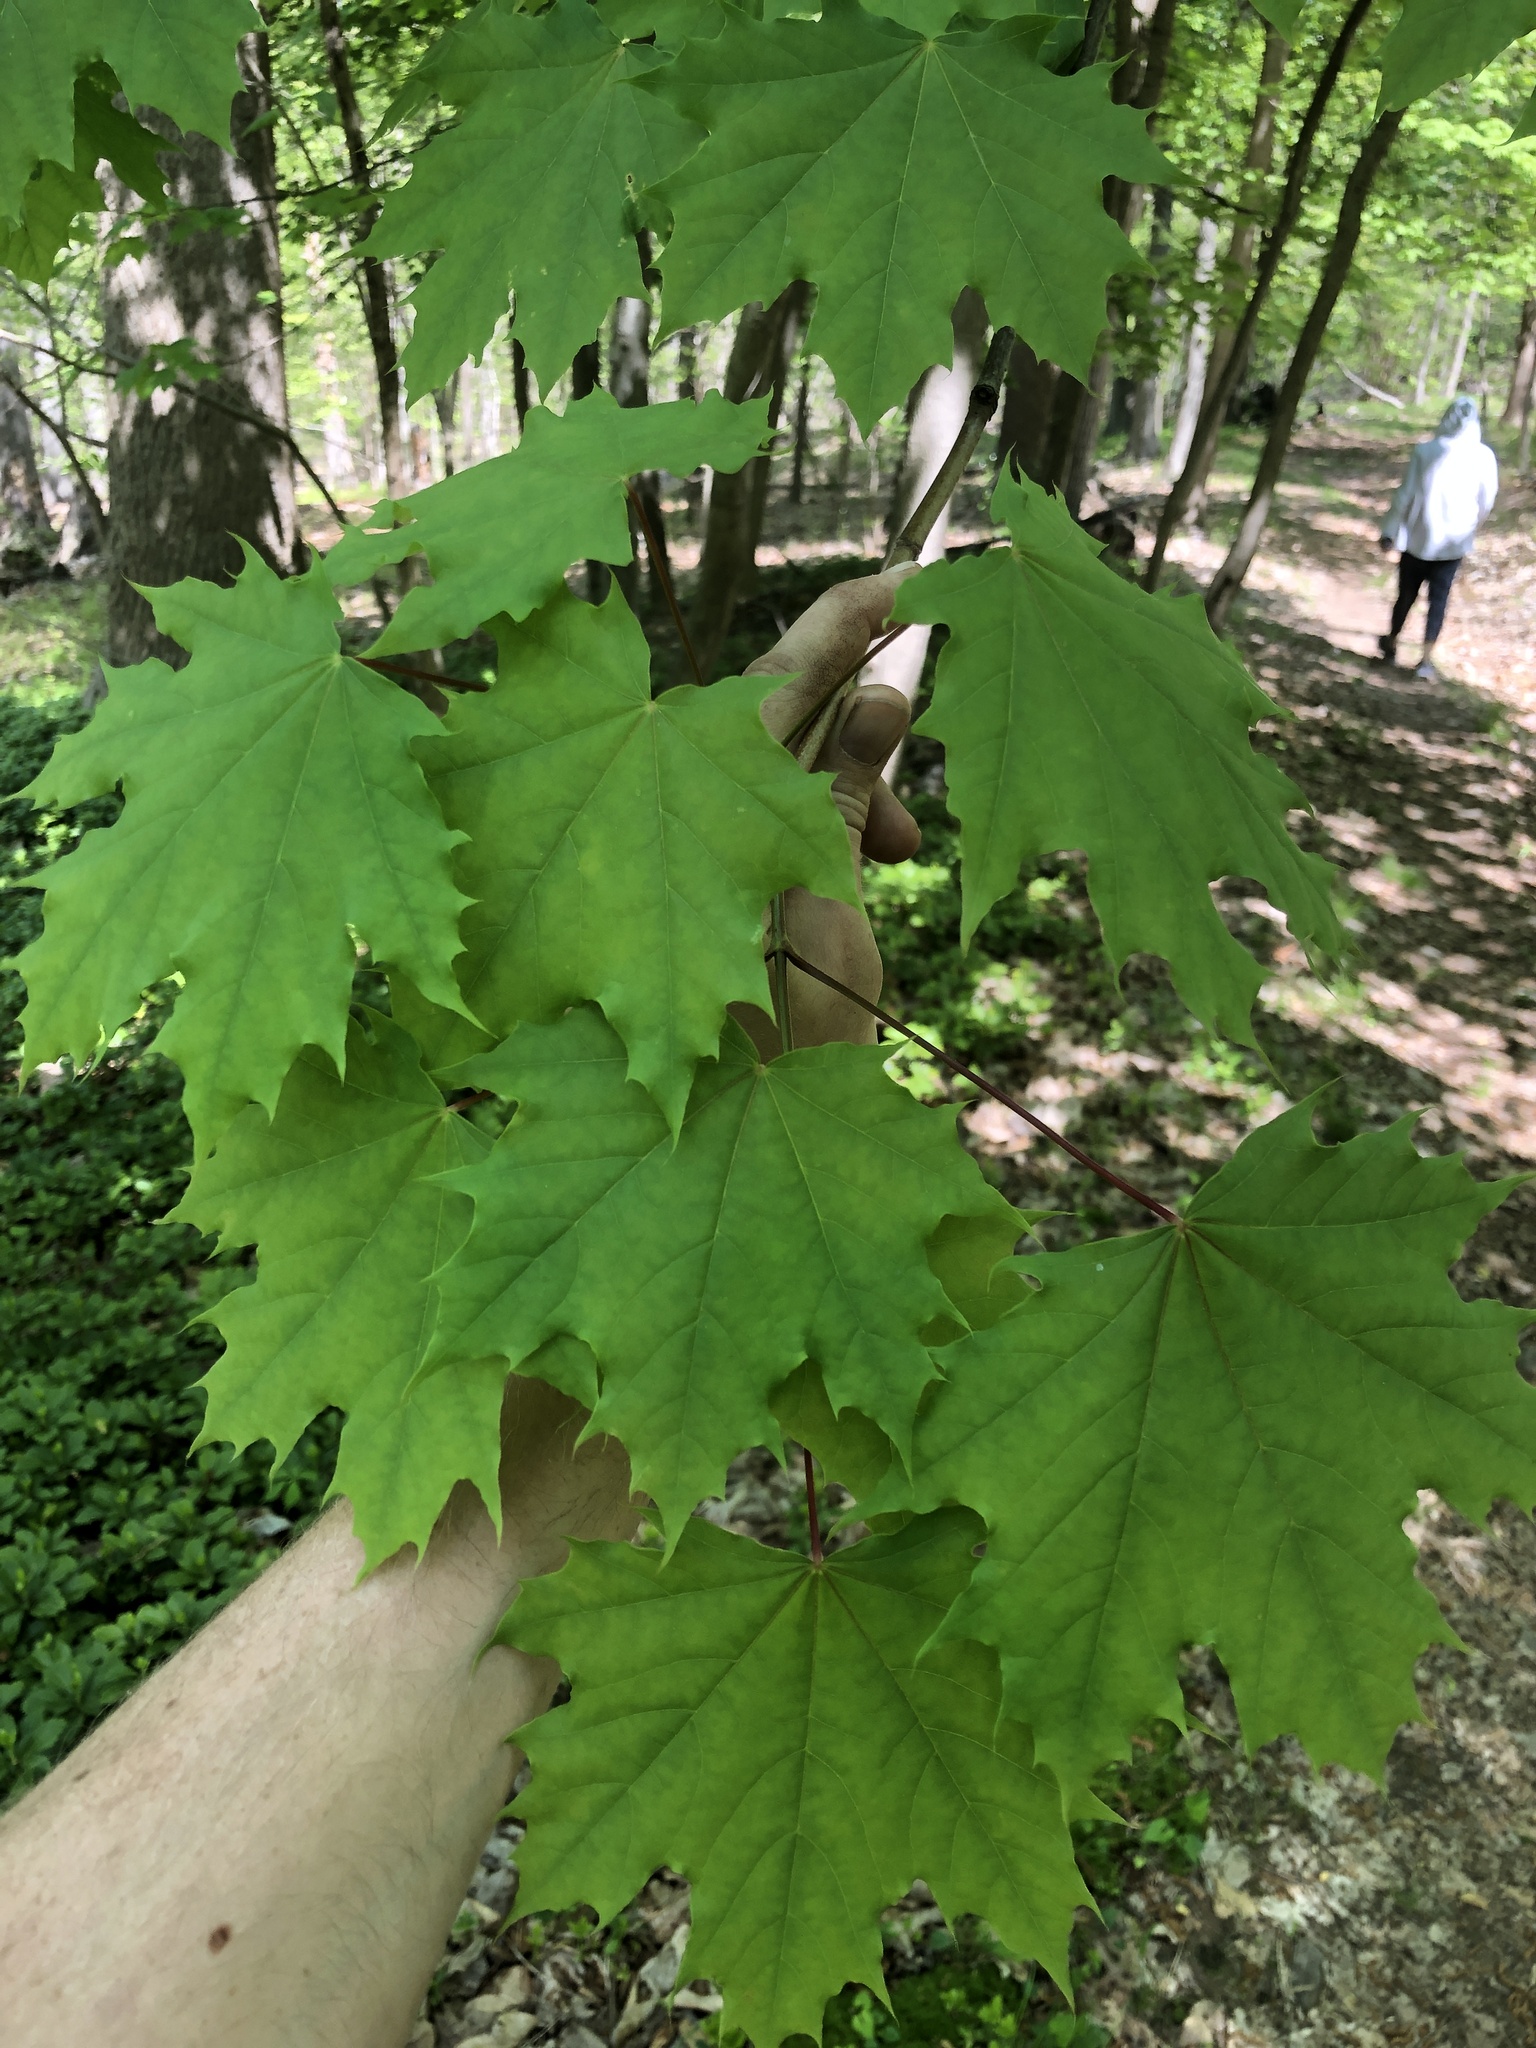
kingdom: Plantae
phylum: Tracheophyta
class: Magnoliopsida
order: Sapindales
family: Sapindaceae
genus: Acer
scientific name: Acer platanoides
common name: Norway maple
